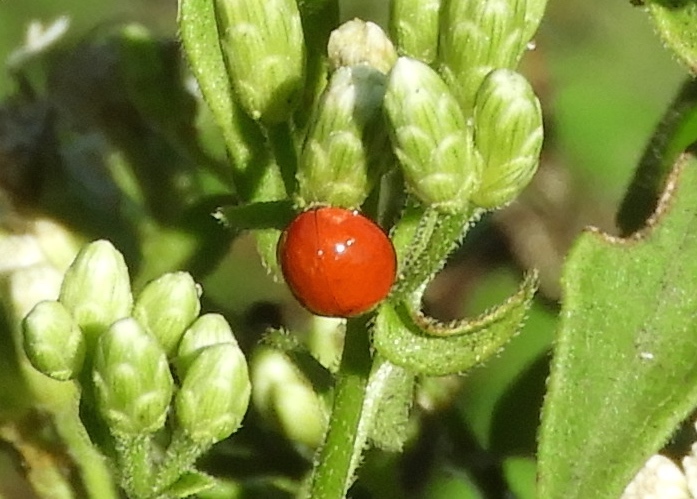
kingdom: Animalia
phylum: Arthropoda
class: Insecta
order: Coleoptera
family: Coccinellidae
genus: Cycloneda
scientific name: Cycloneda
